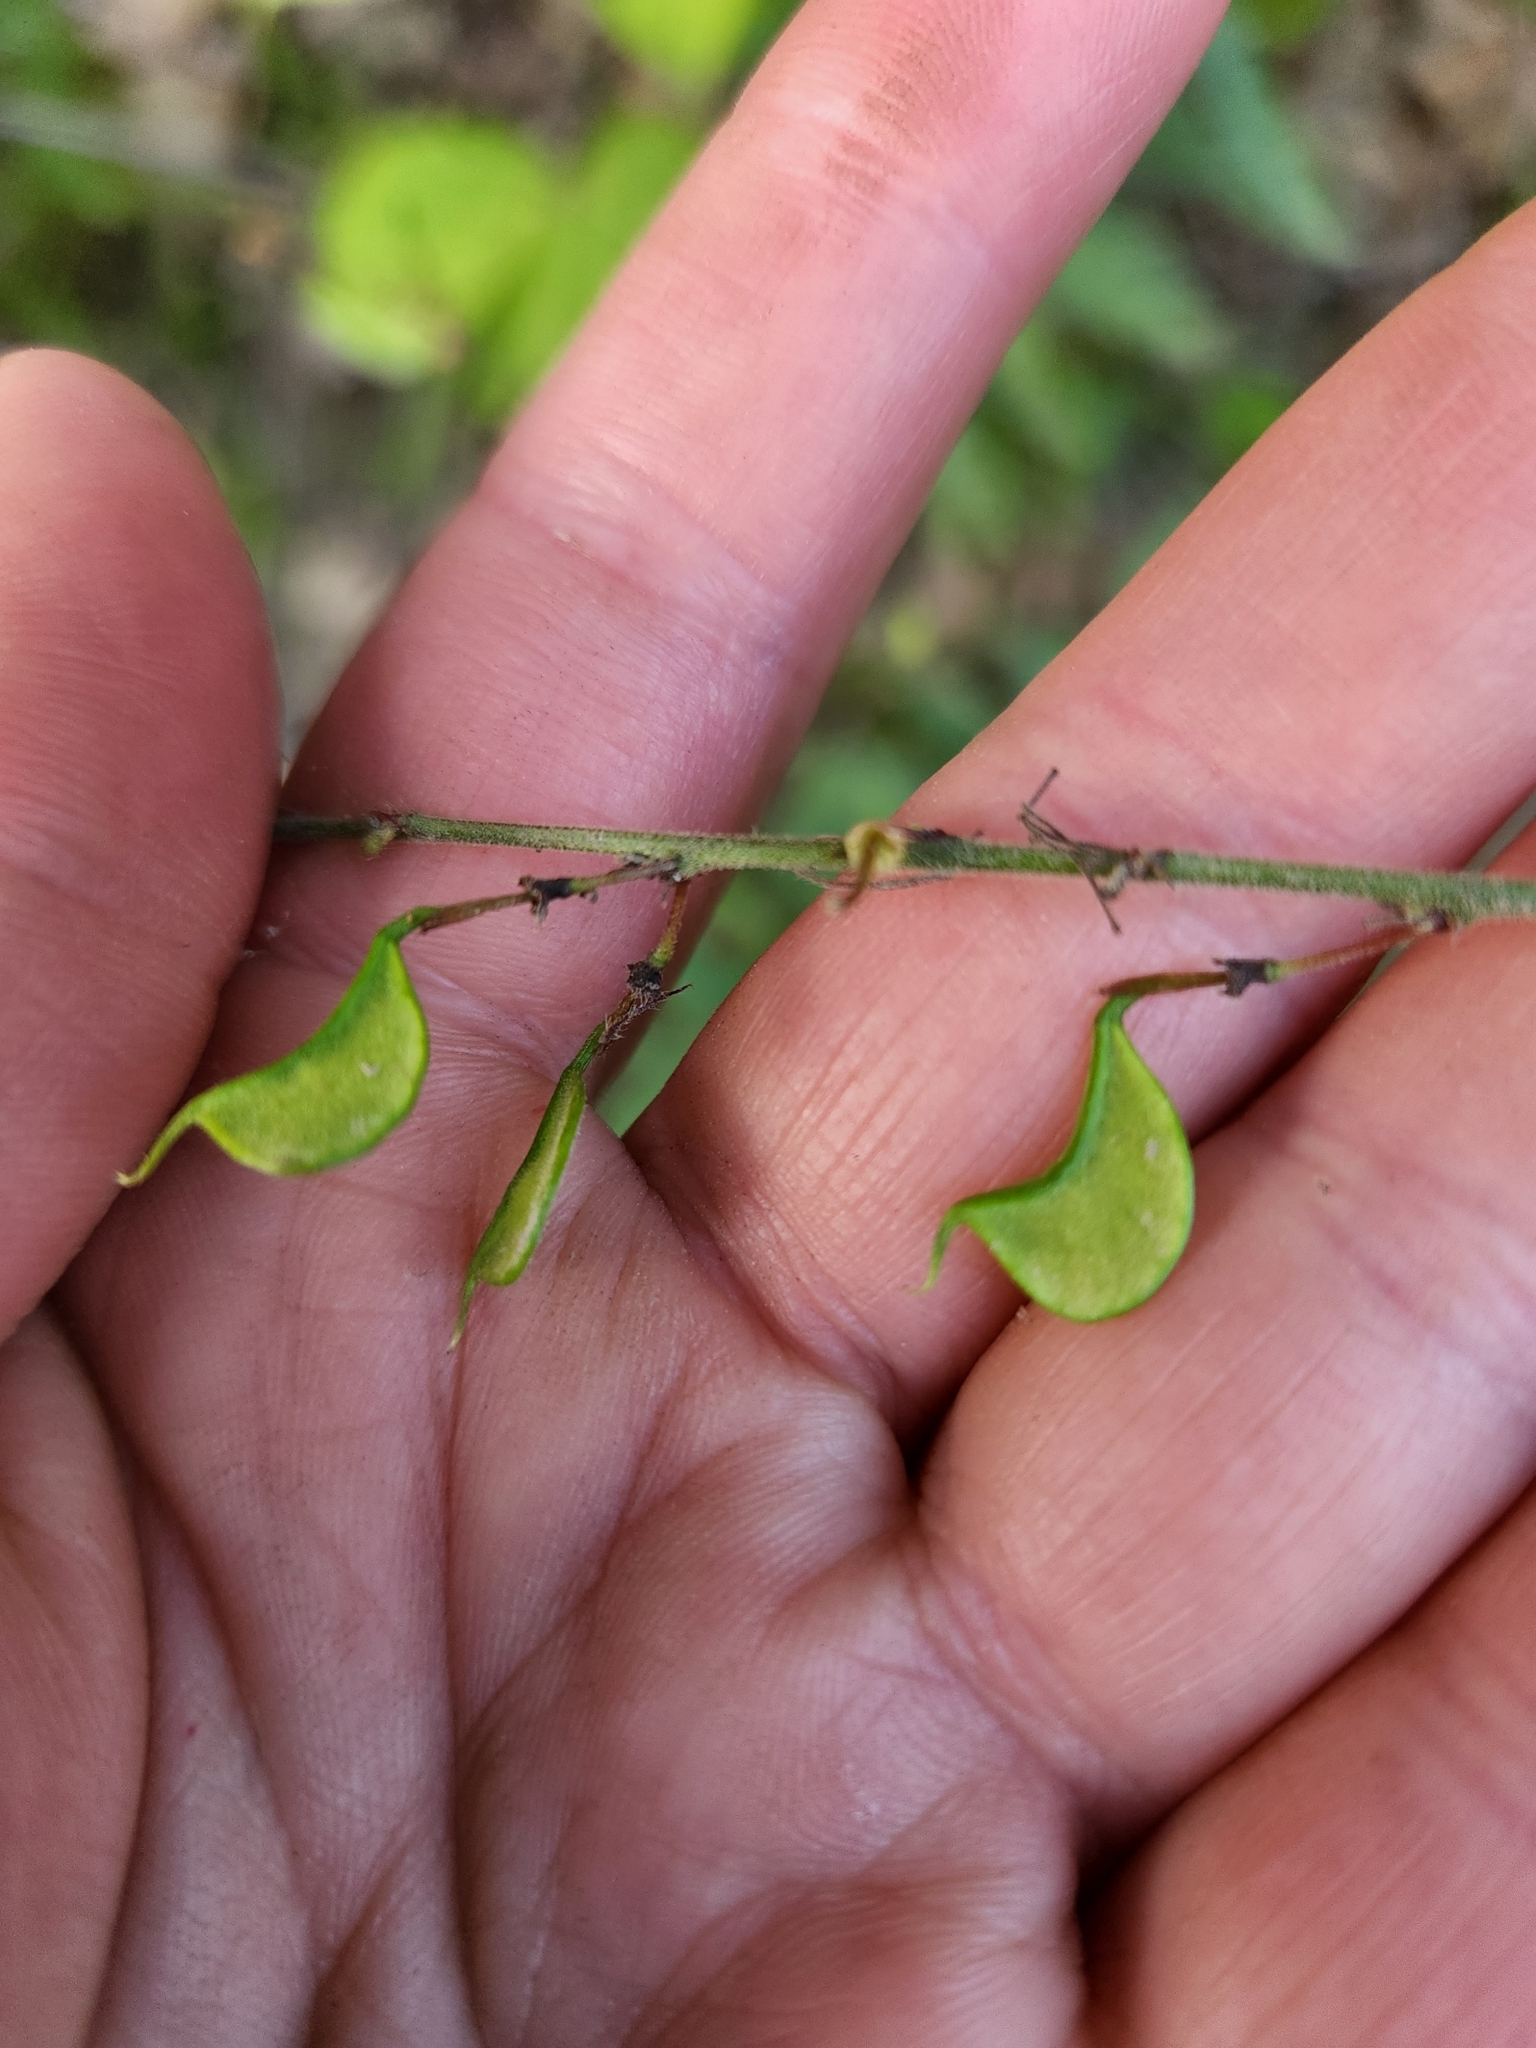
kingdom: Plantae
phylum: Tracheophyta
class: Magnoliopsida
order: Fabales
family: Fabaceae
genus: Hylodesmum
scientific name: Hylodesmum glutinosum
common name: Clustered-leaved tick-trefoil
